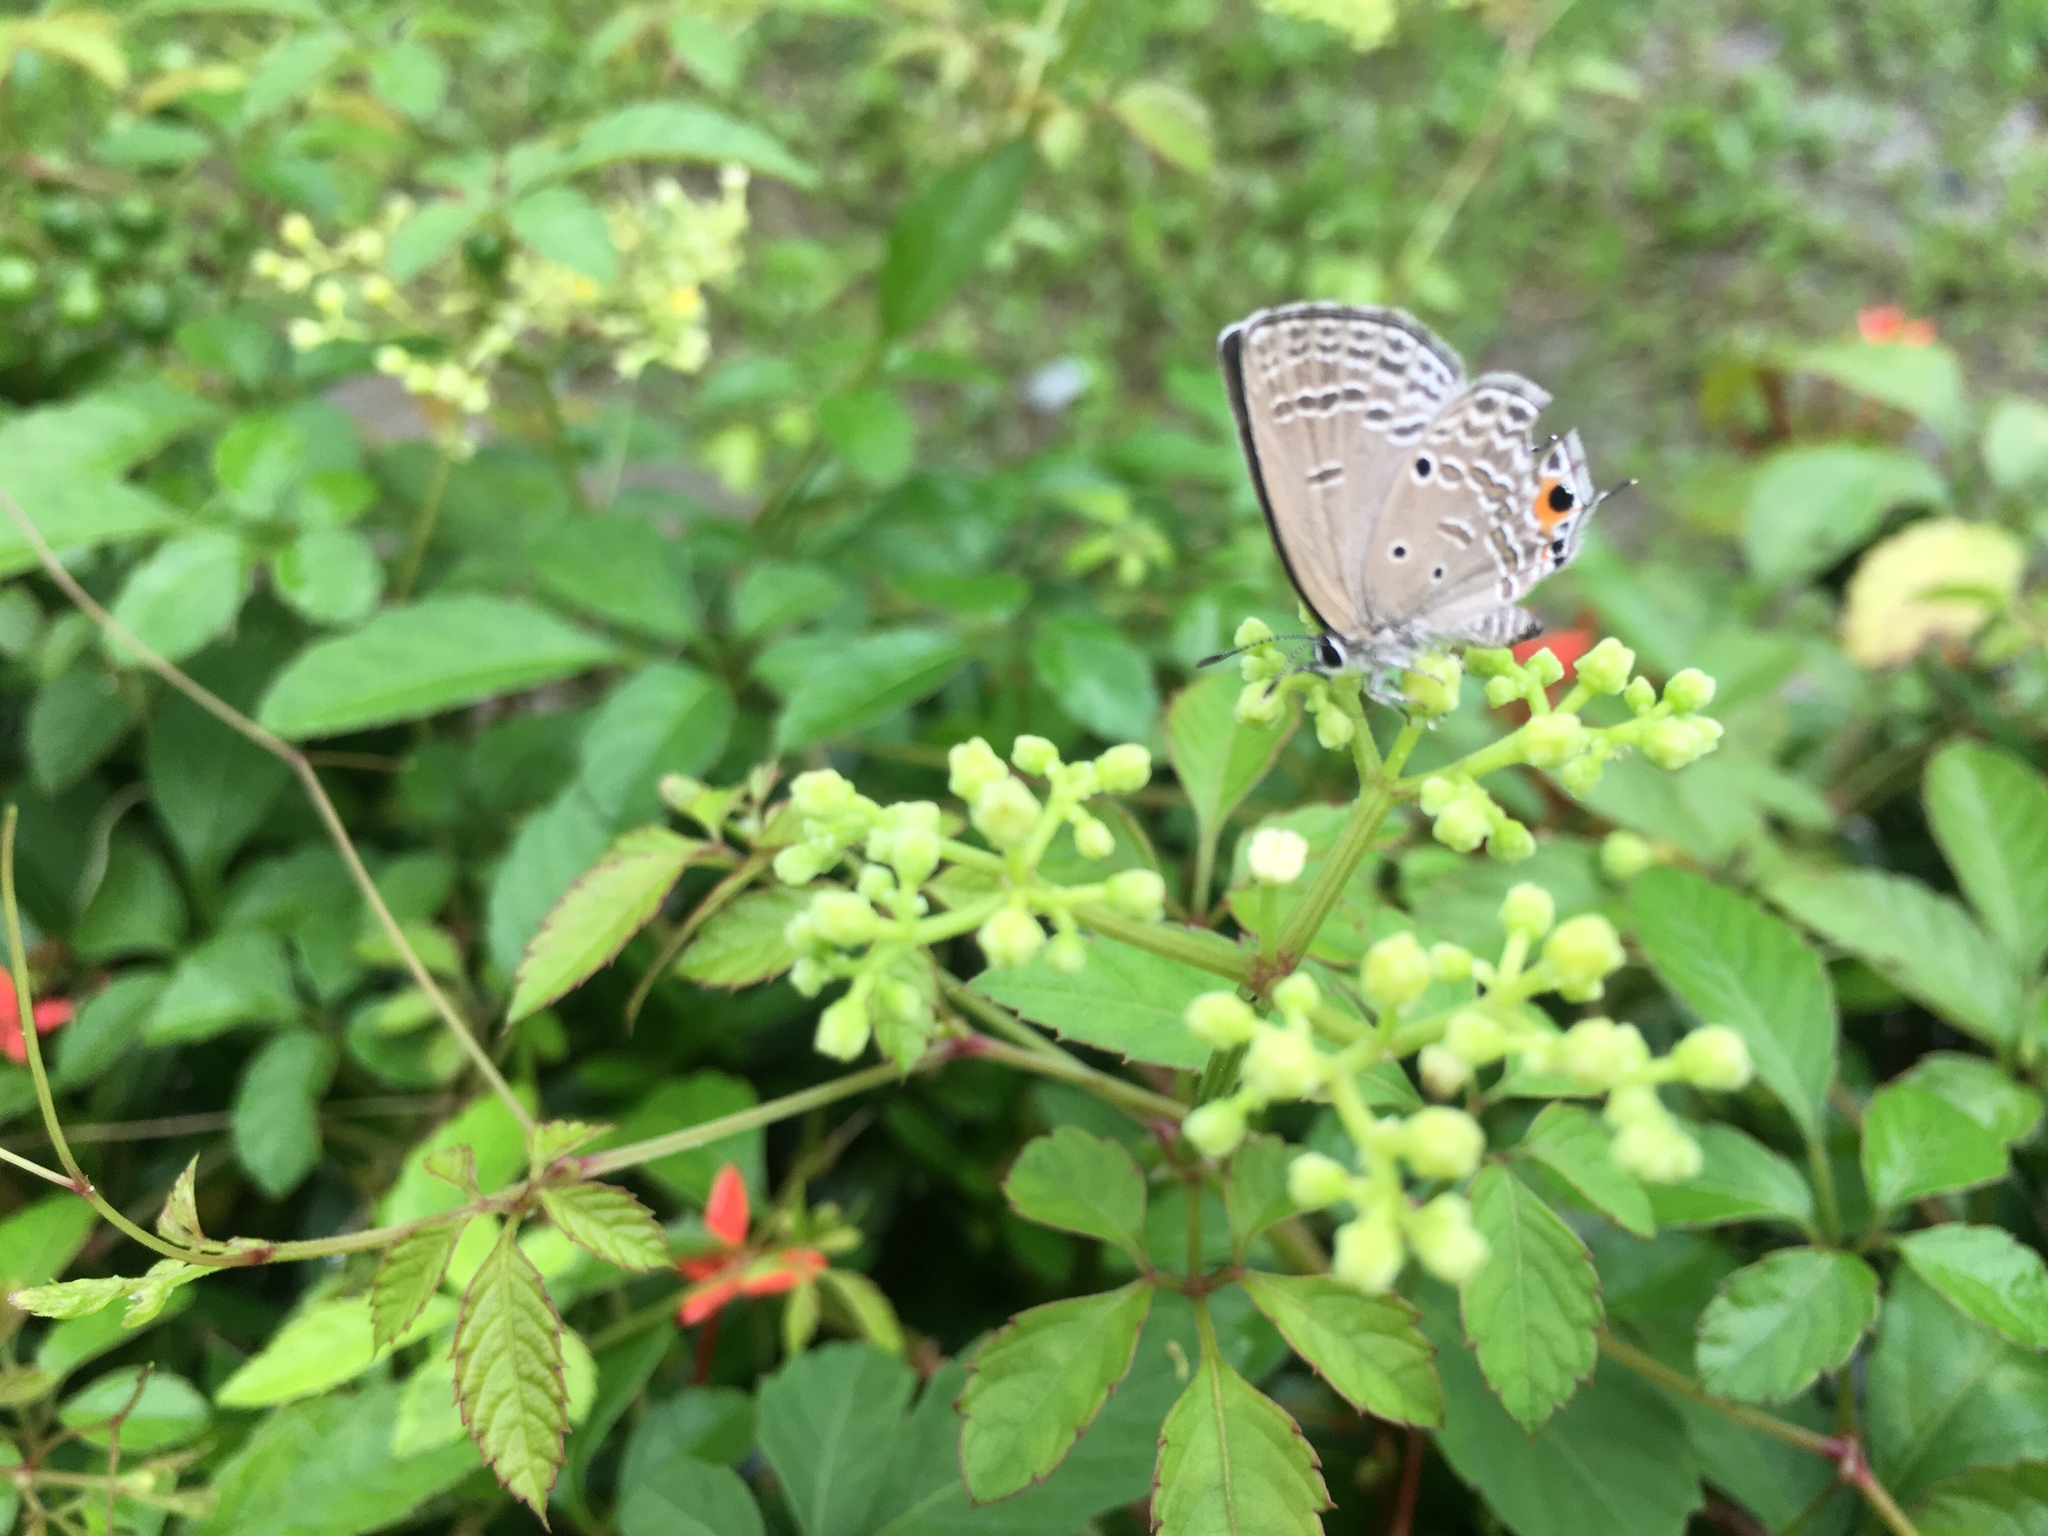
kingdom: Animalia
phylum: Arthropoda
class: Insecta
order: Lepidoptera
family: Lycaenidae
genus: Luthrodes
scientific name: Luthrodes pandava
